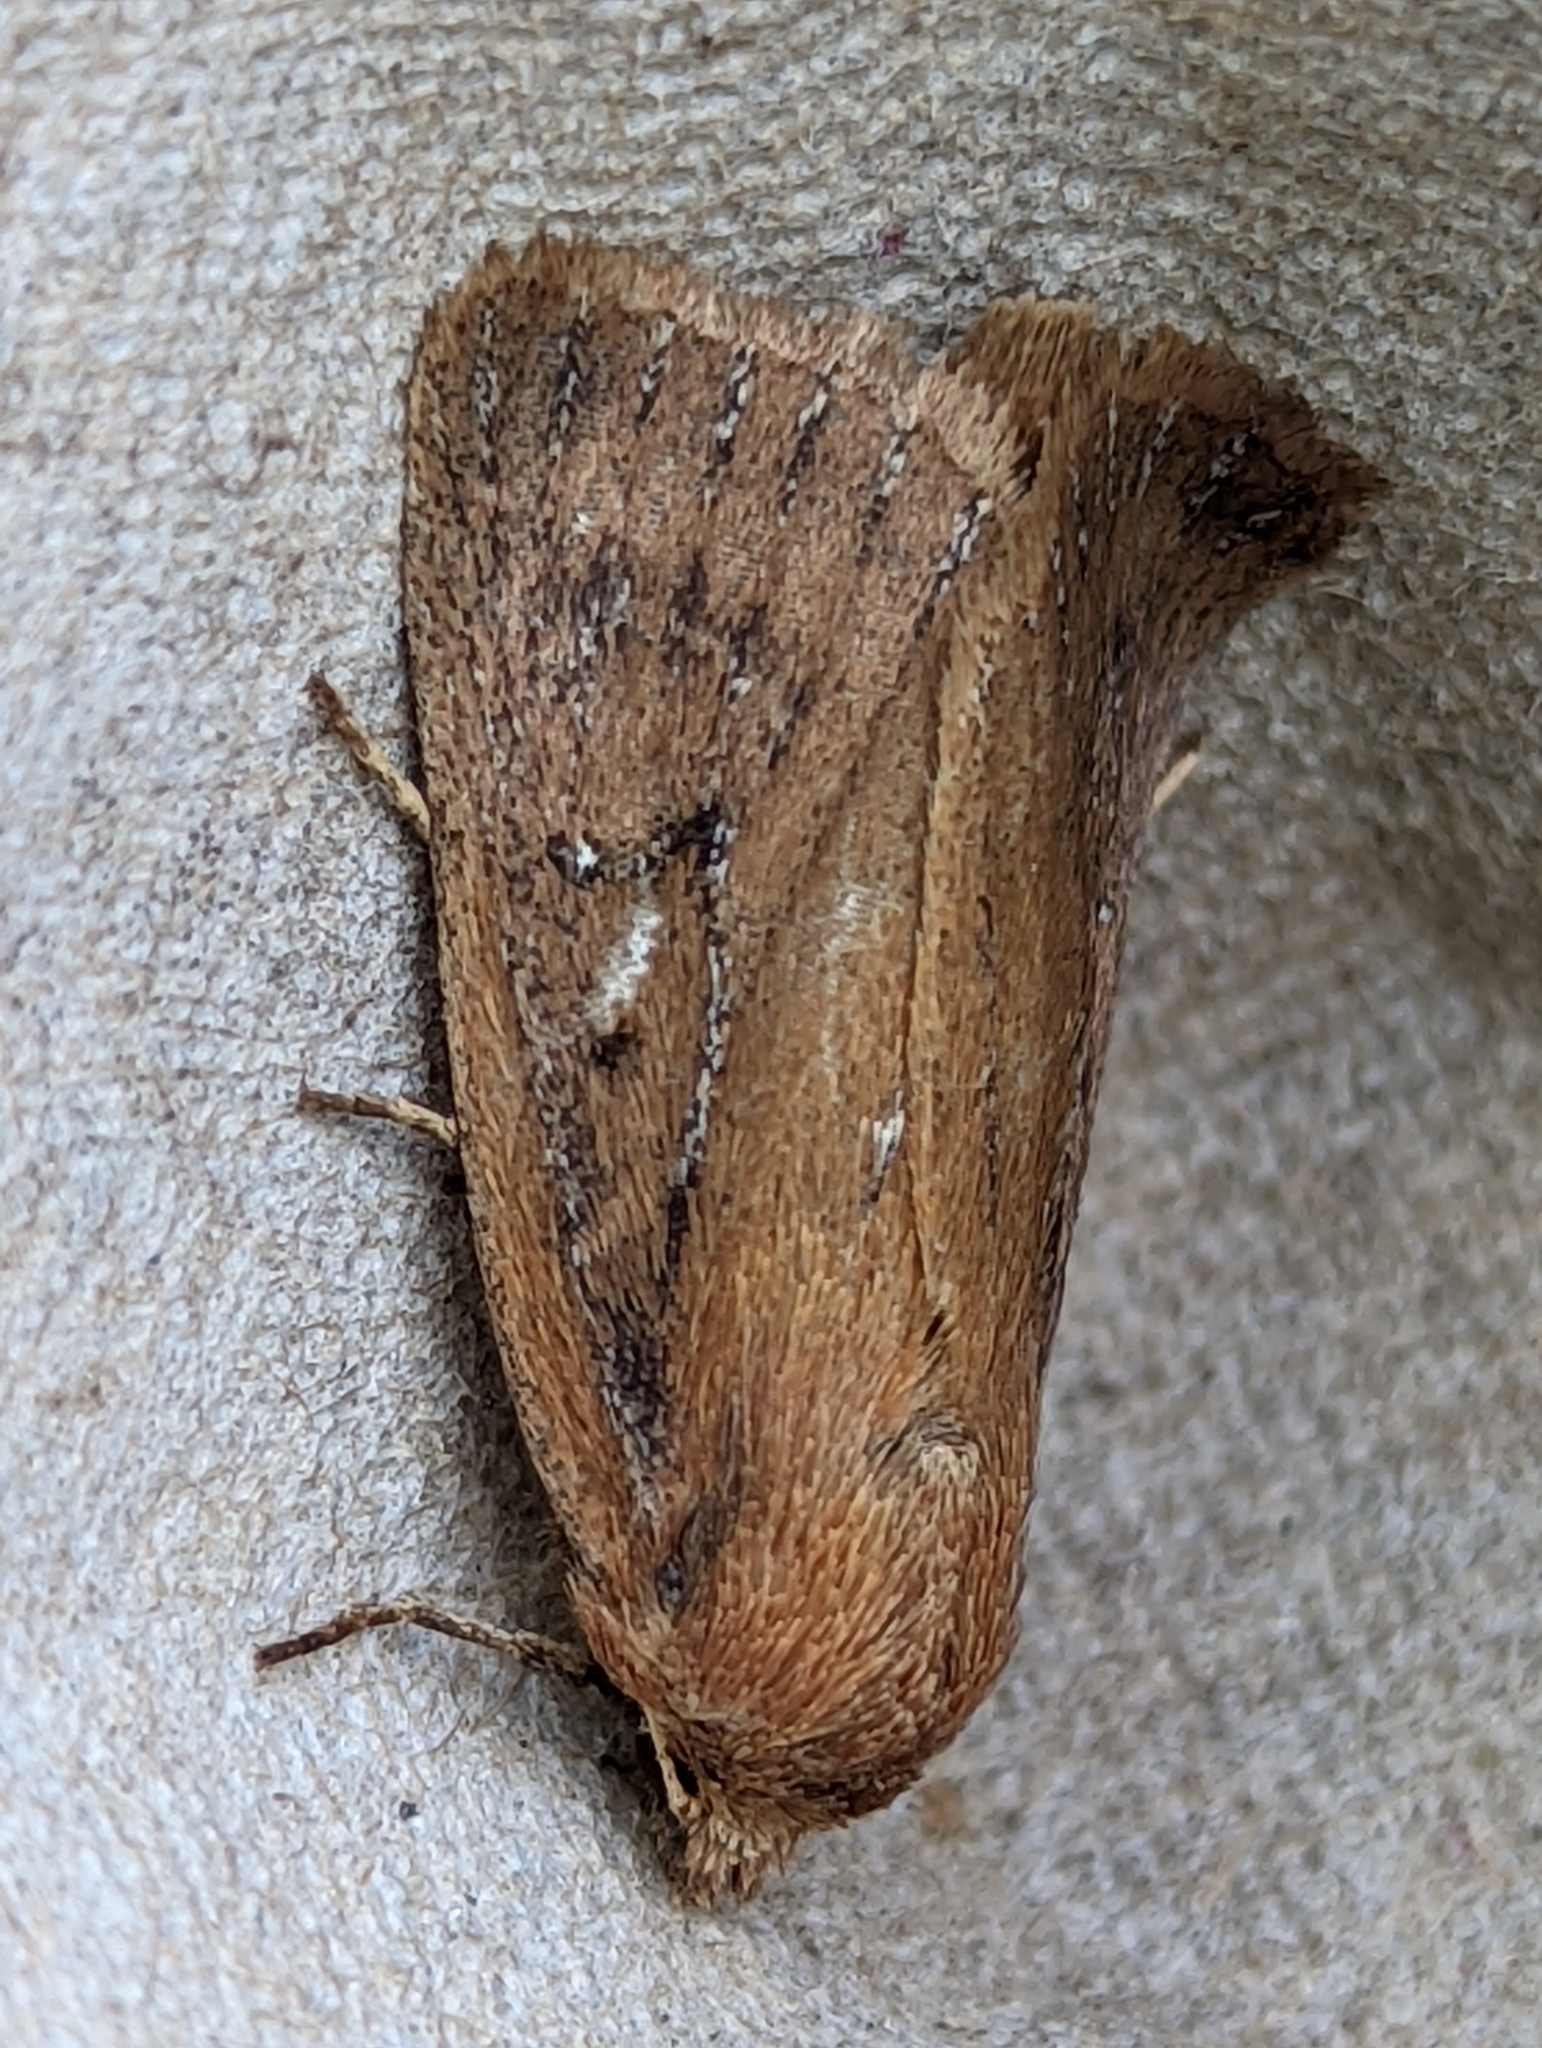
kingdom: Animalia
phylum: Arthropoda
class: Insecta
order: Lepidoptera
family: Noctuidae
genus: Lenisa
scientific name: Lenisa geminipuncta
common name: Twin-spotted wainscot
